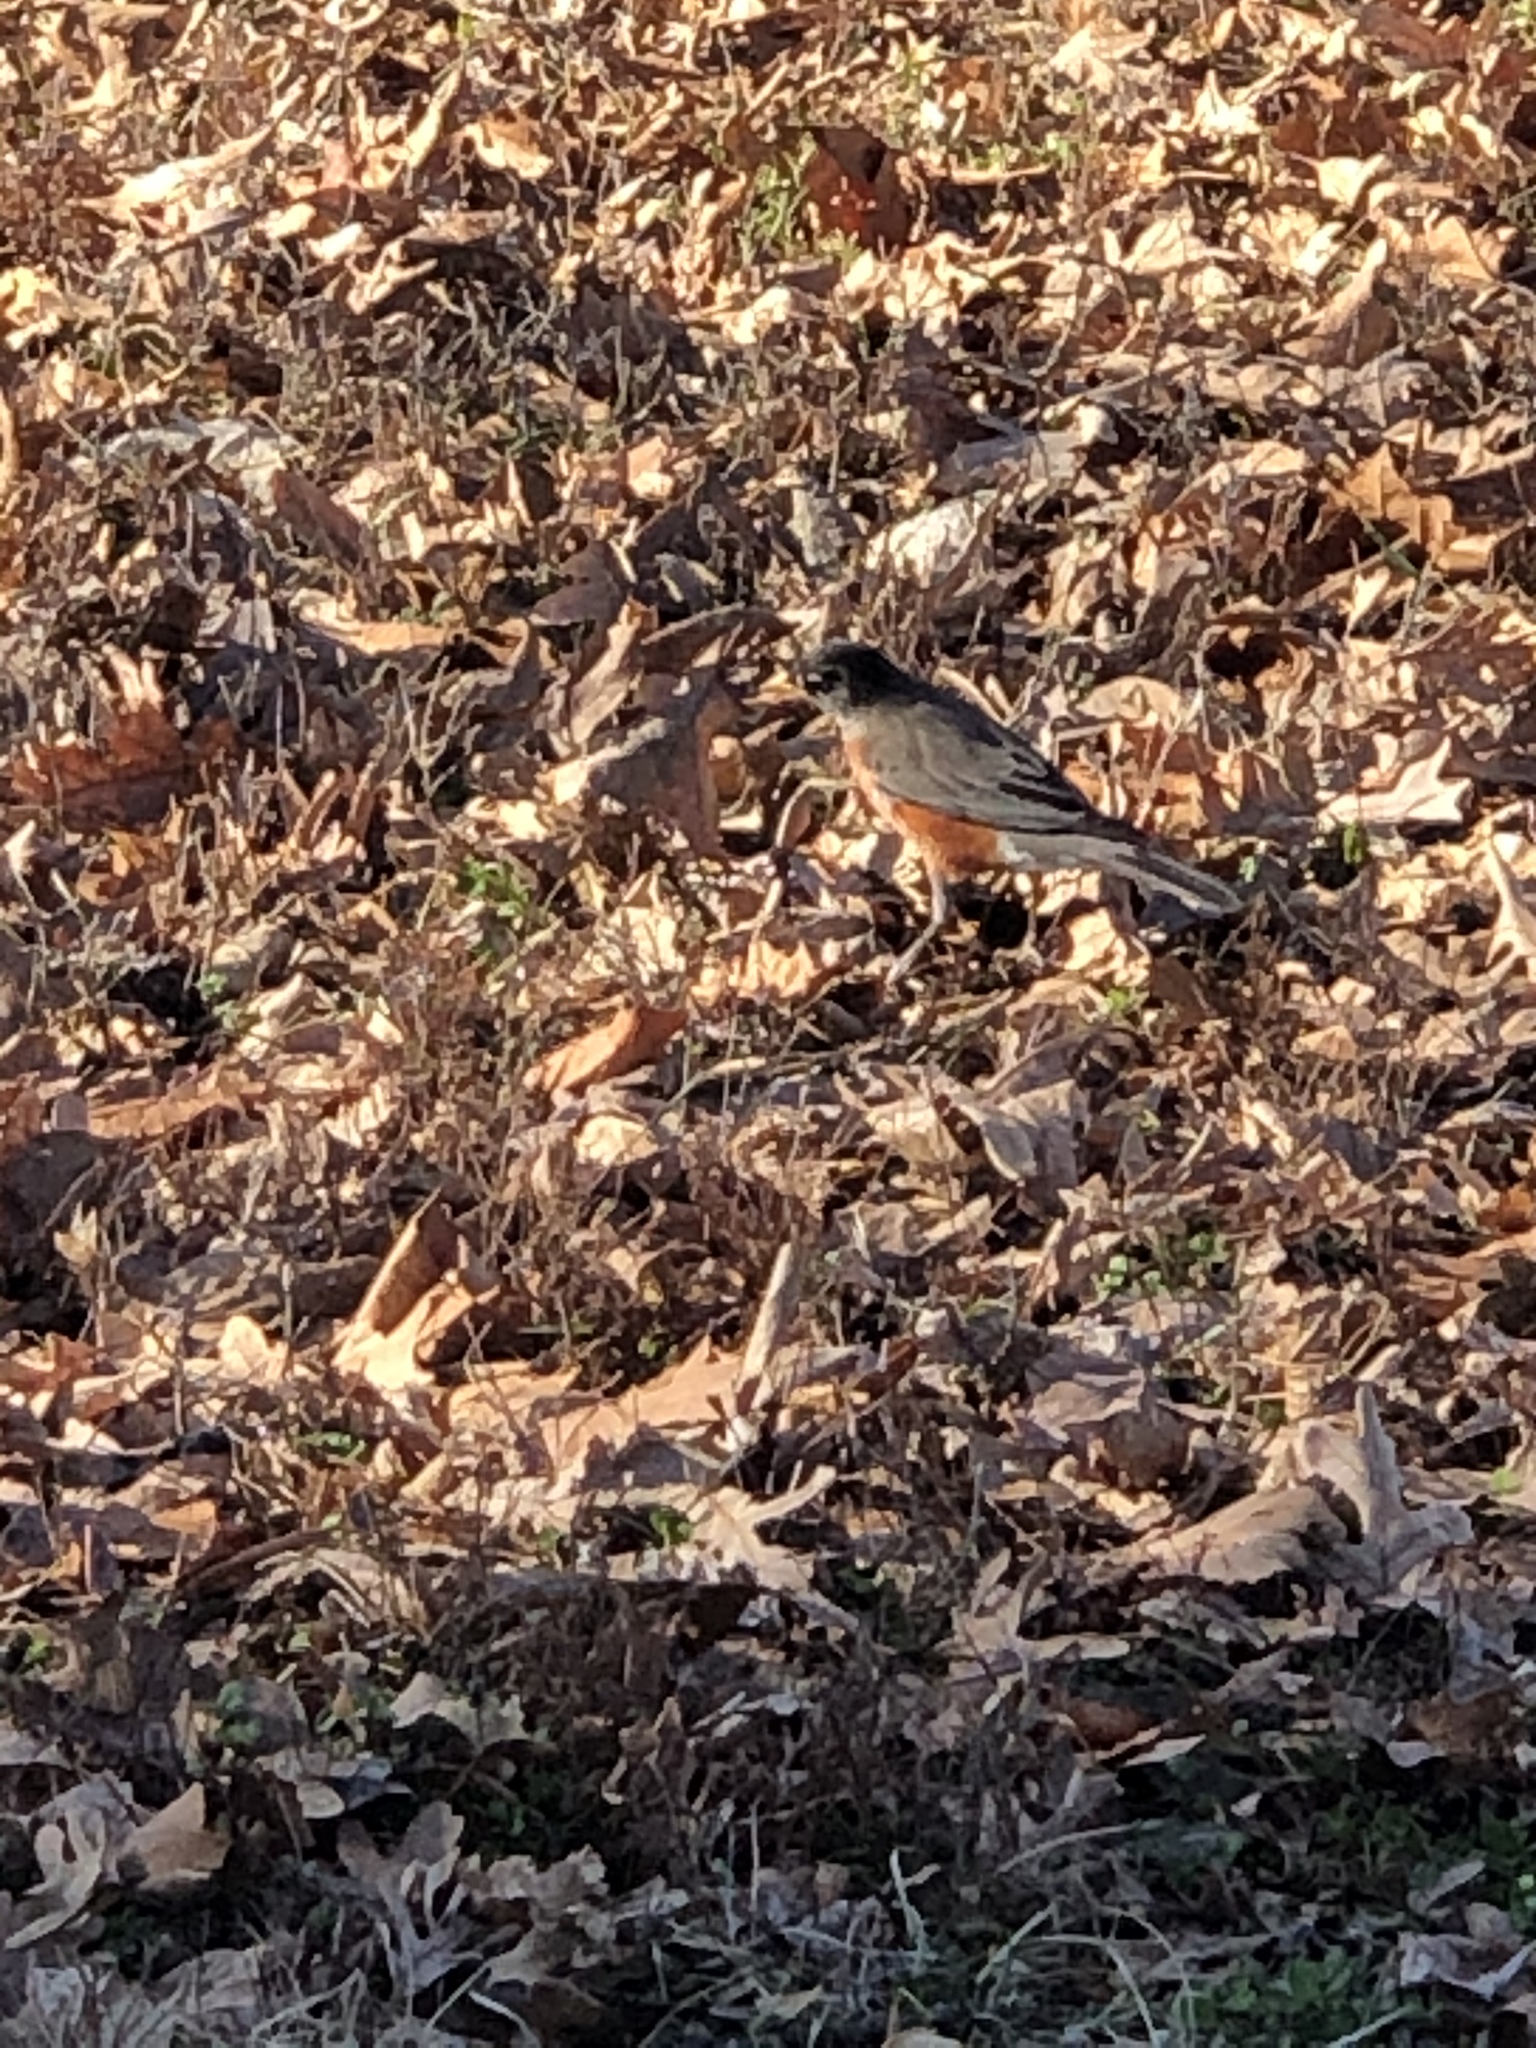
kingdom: Animalia
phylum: Chordata
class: Aves
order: Passeriformes
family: Turdidae
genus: Turdus
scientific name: Turdus migratorius
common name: American robin
